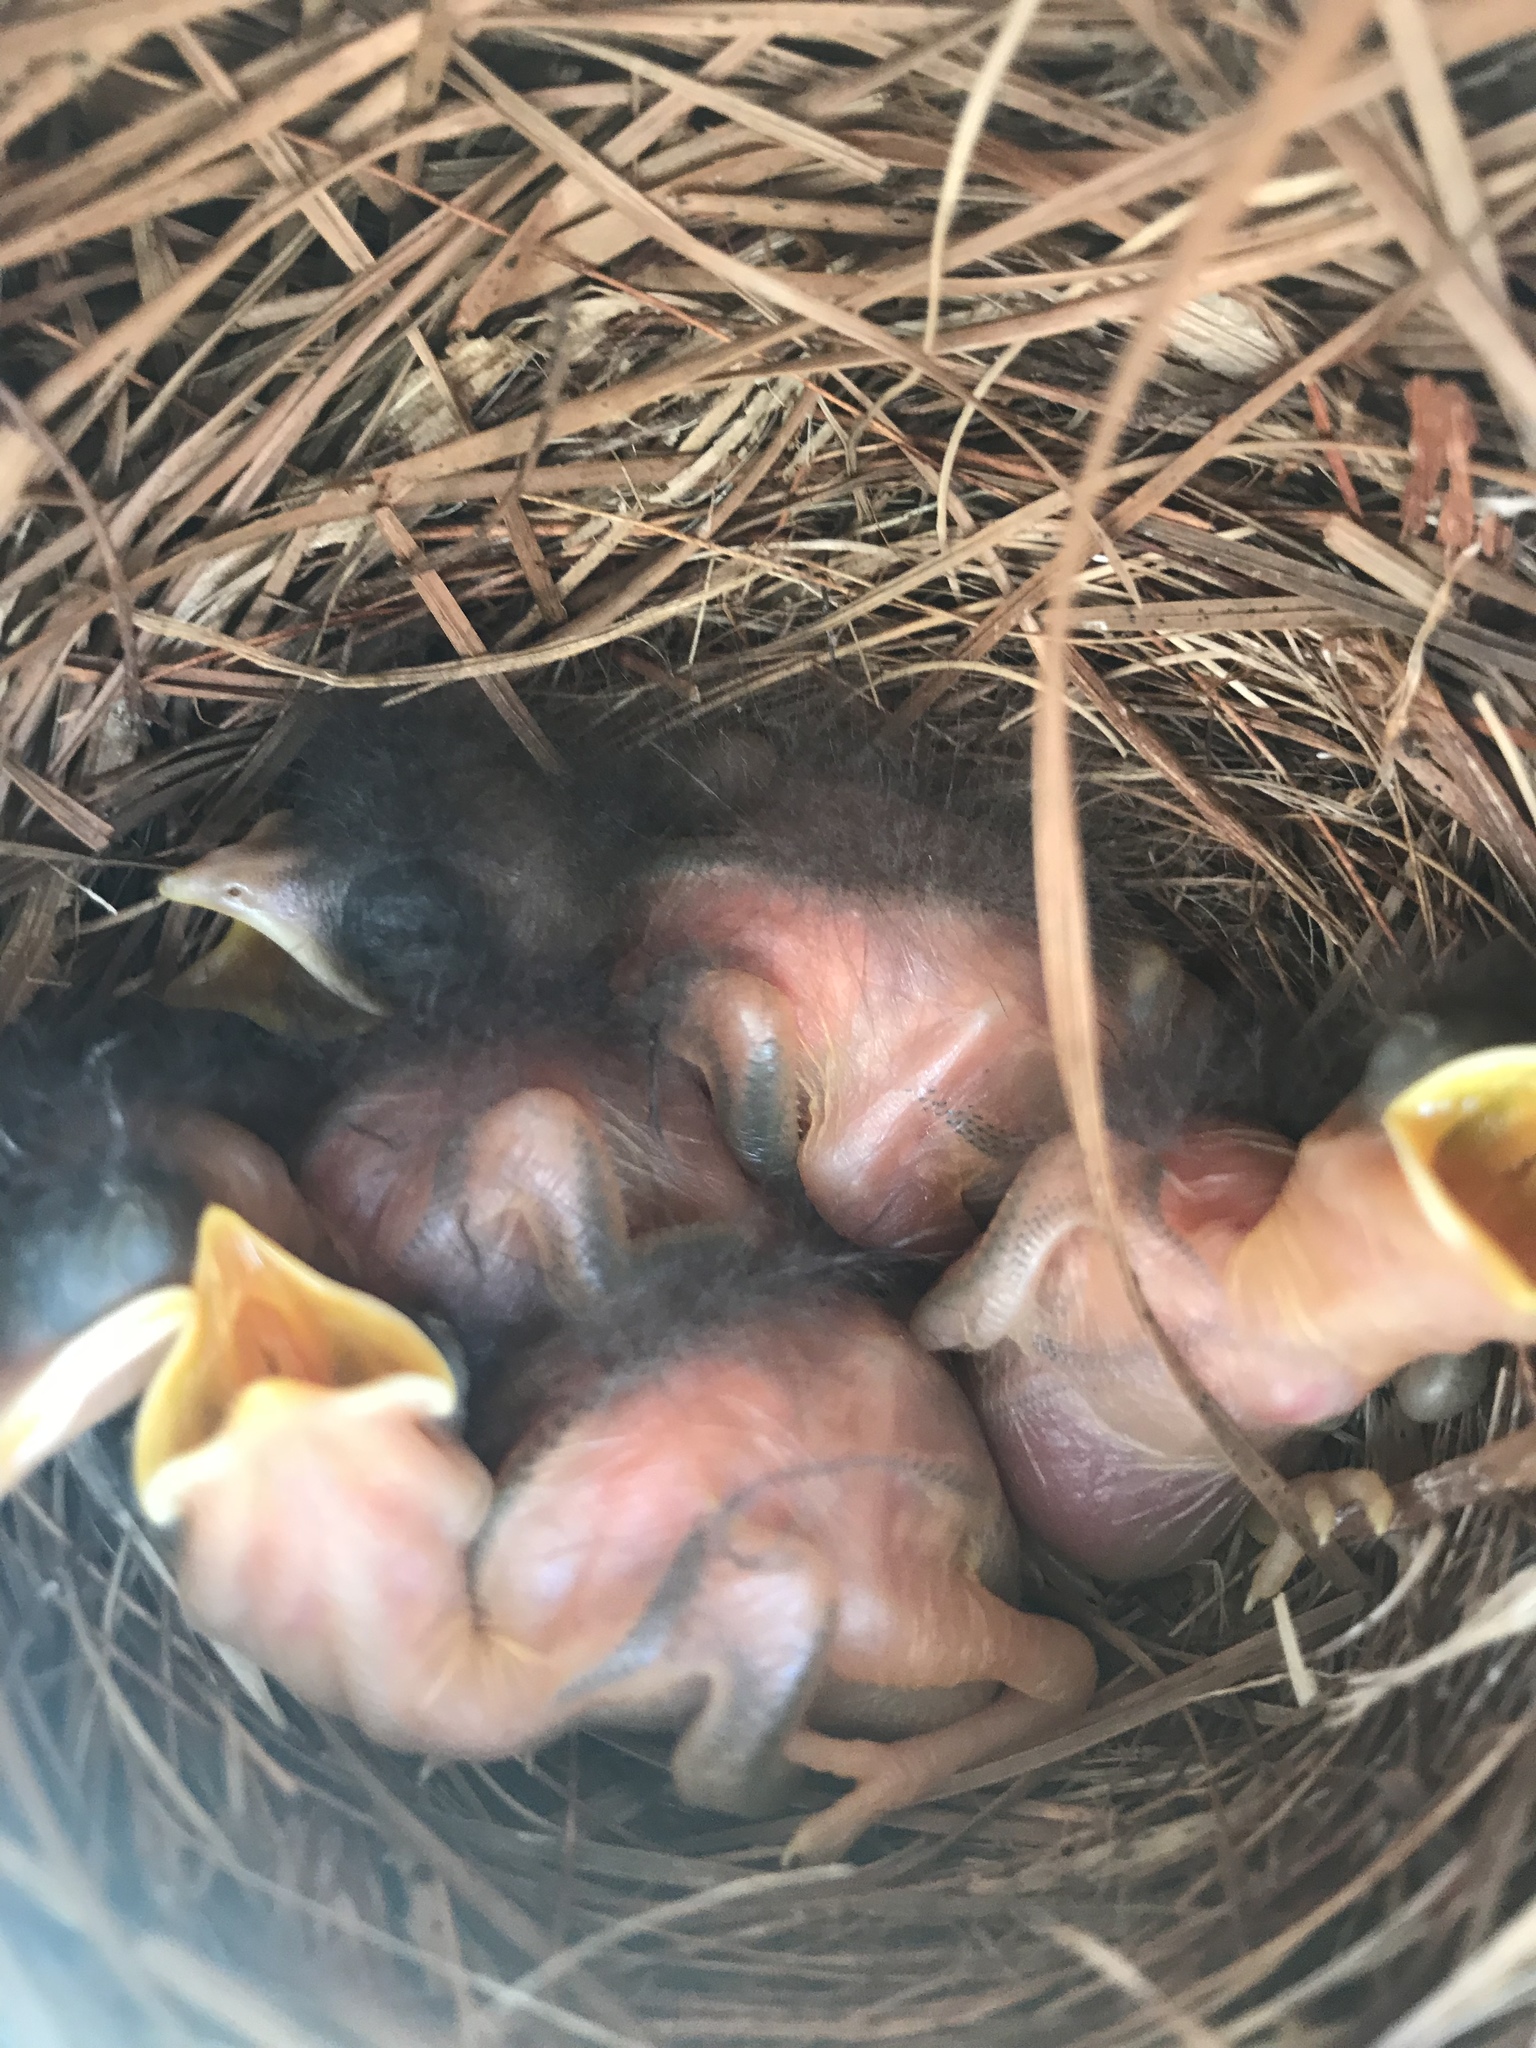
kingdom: Animalia
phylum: Chordata
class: Aves
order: Passeriformes
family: Turdidae
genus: Sialia
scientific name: Sialia sialis
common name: Eastern bluebird
